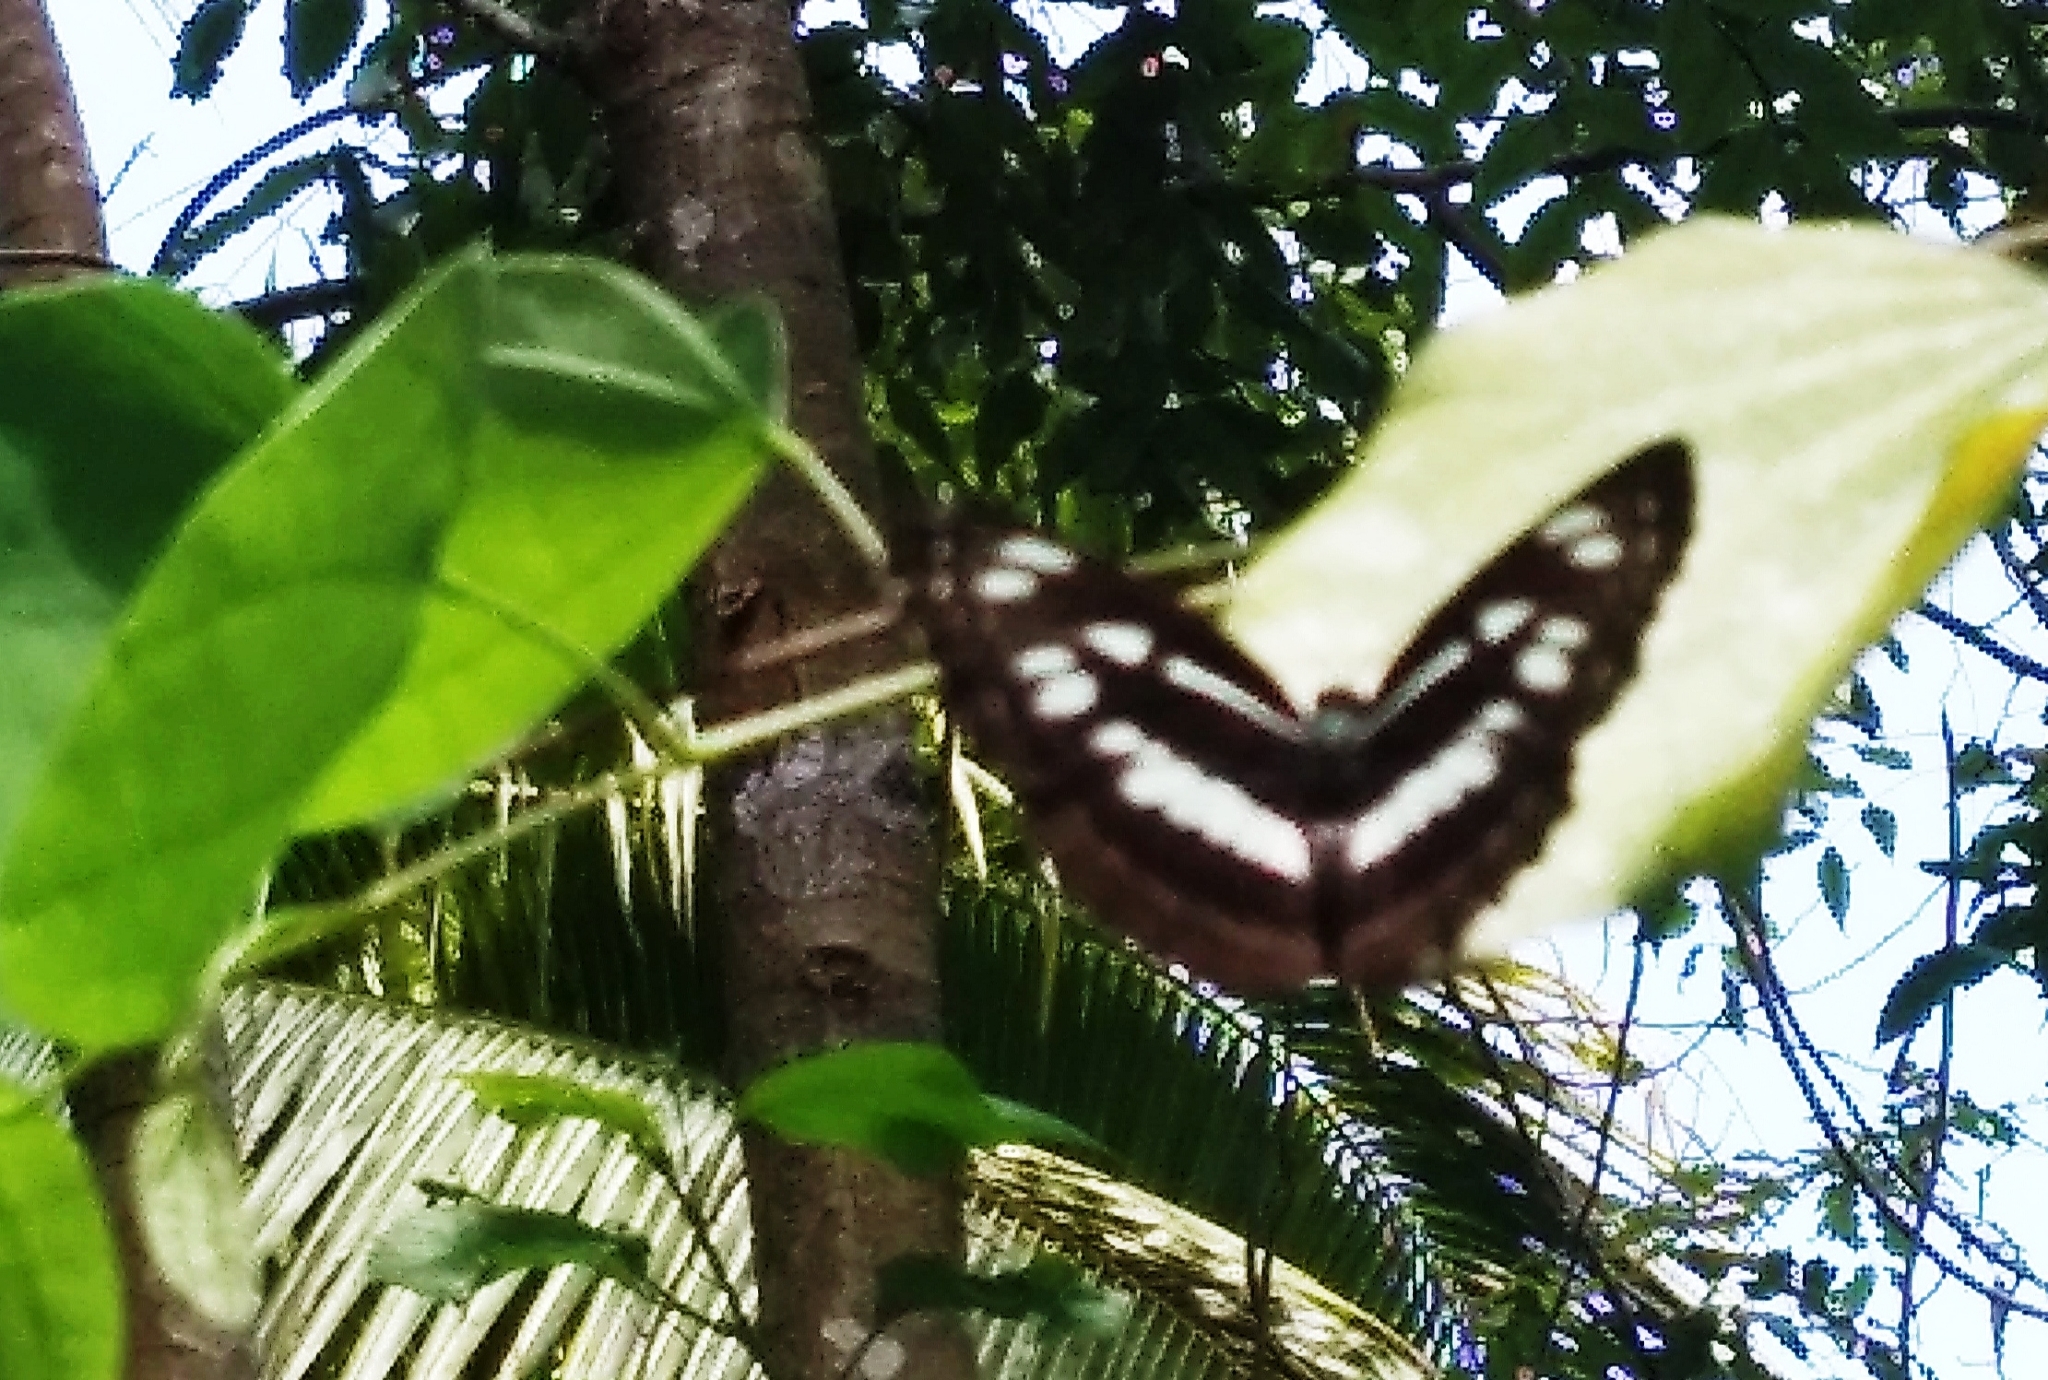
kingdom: Animalia
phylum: Arthropoda
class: Insecta
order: Lepidoptera
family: Nymphalidae
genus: Neptis
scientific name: Neptis jumbah
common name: Chestnut-streaked sailer
